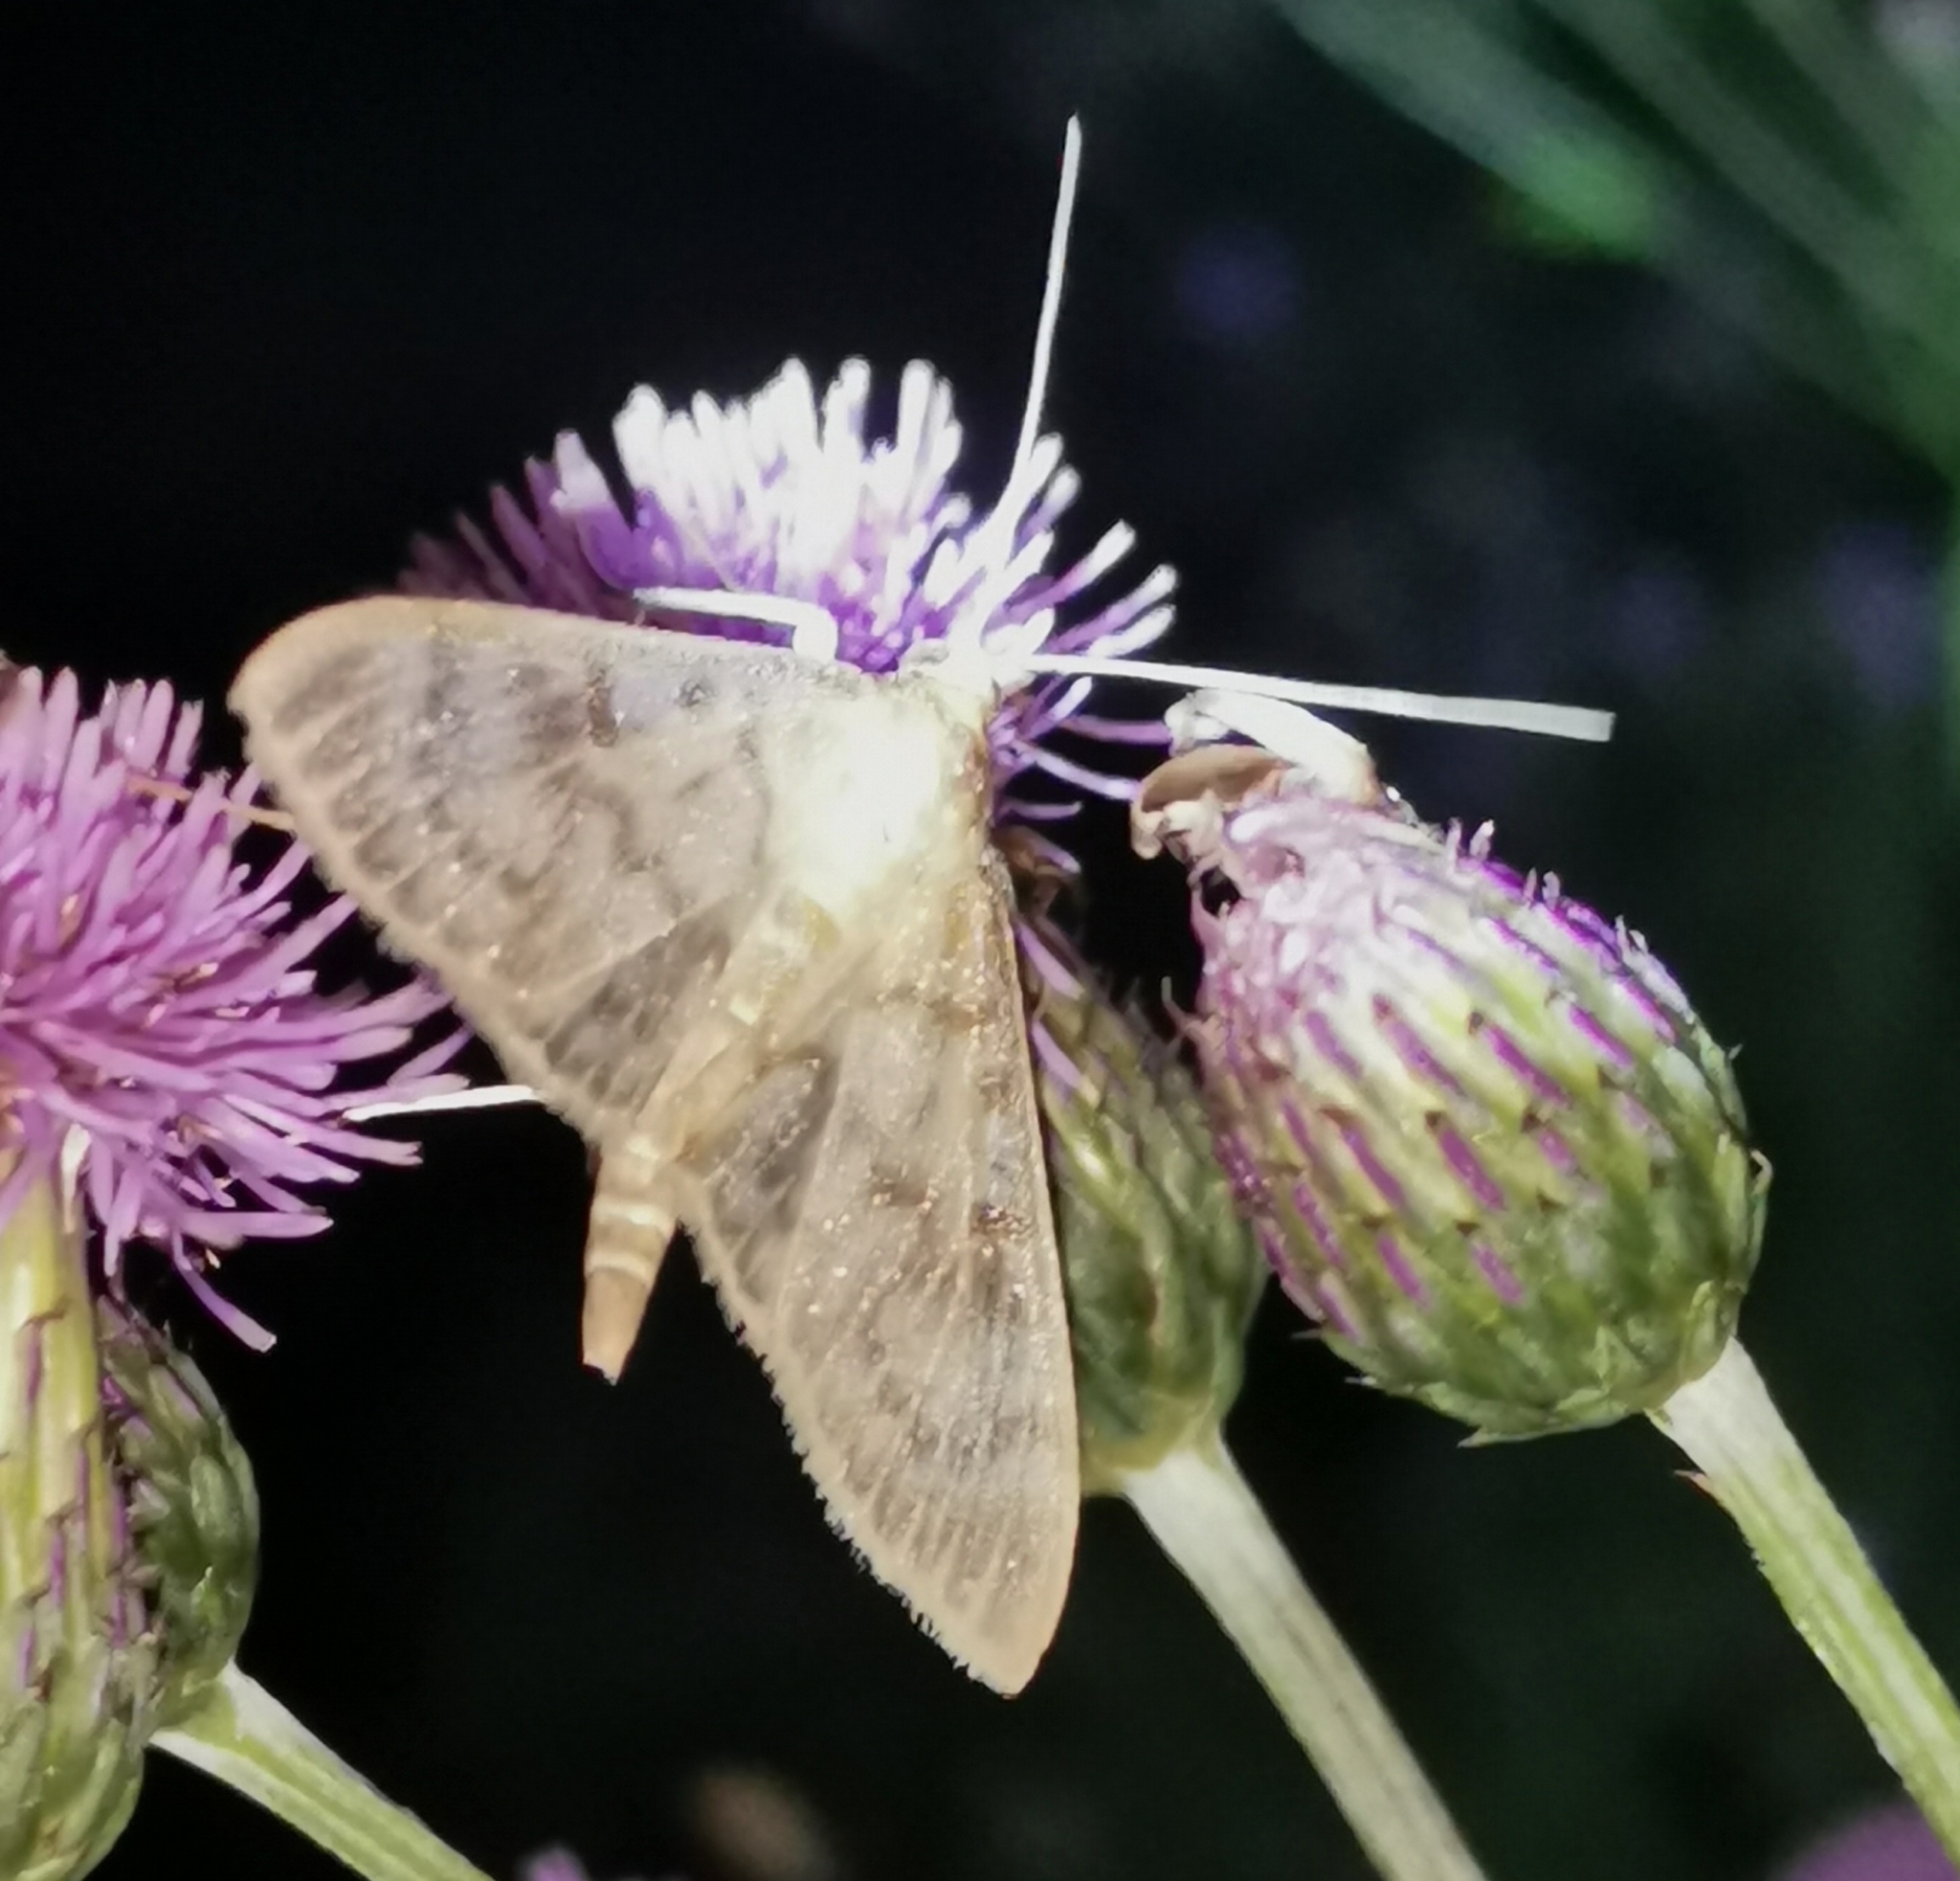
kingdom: Animalia
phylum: Arthropoda
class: Insecta
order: Lepidoptera
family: Crambidae
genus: Patania
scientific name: Patania ruralis
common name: Mother of pearl
